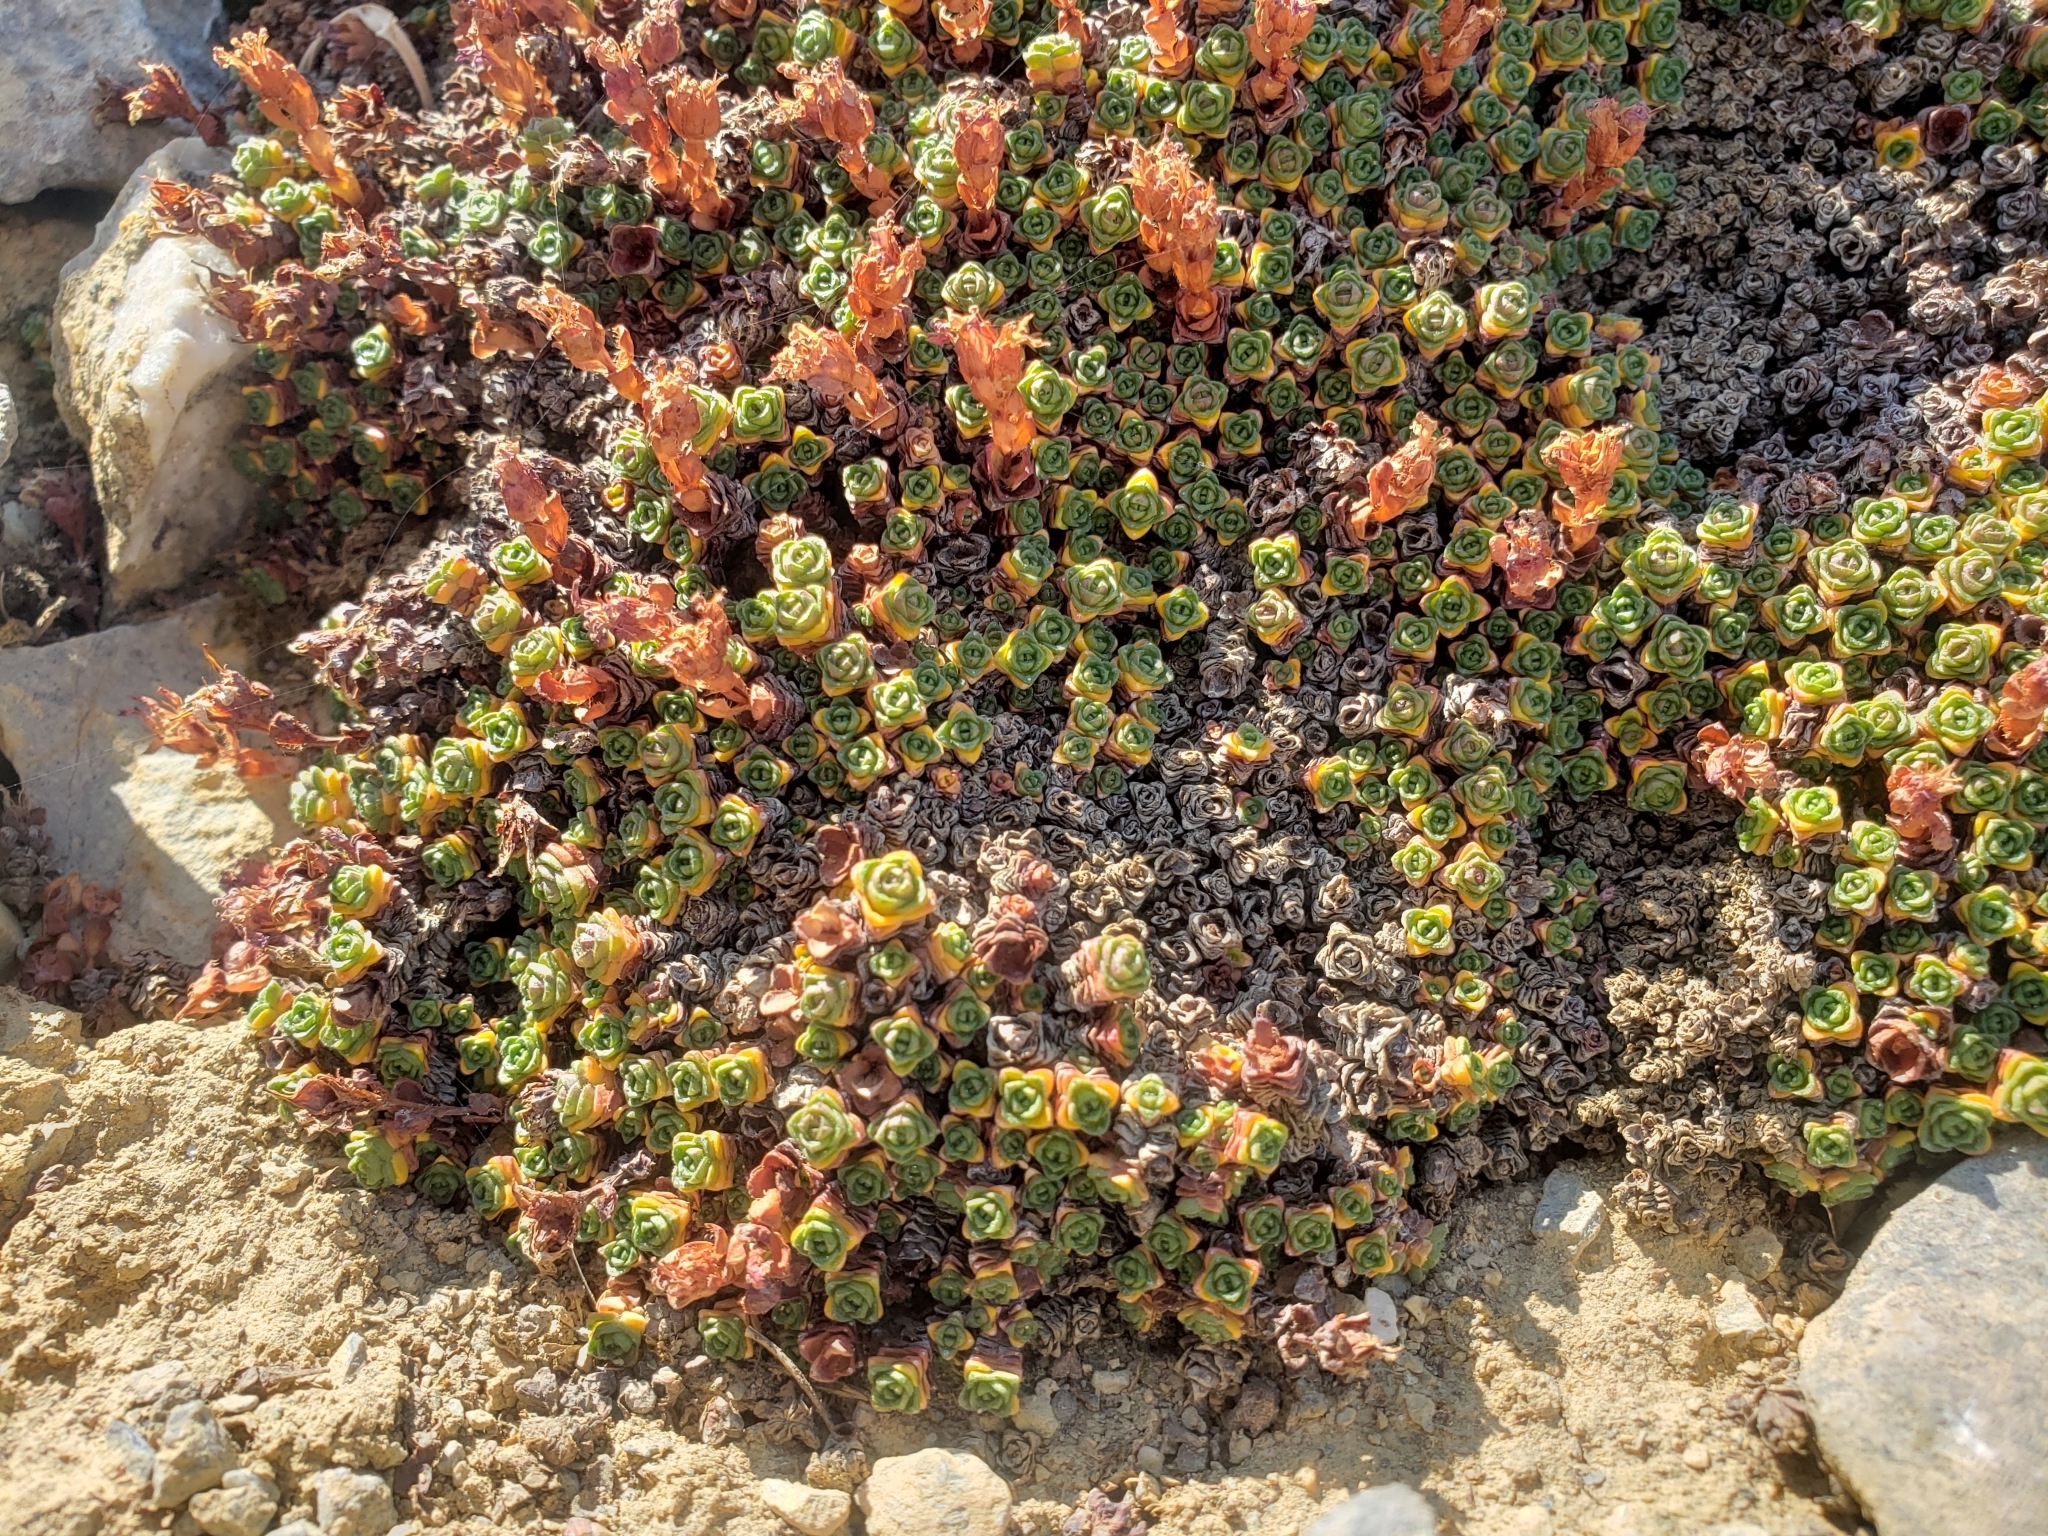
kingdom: Plantae
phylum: Tracheophyta
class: Magnoliopsida
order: Saxifragales
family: Saxifragaceae
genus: Saxifraga
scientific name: Saxifraga oppositifolia
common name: Purple saxifrage
